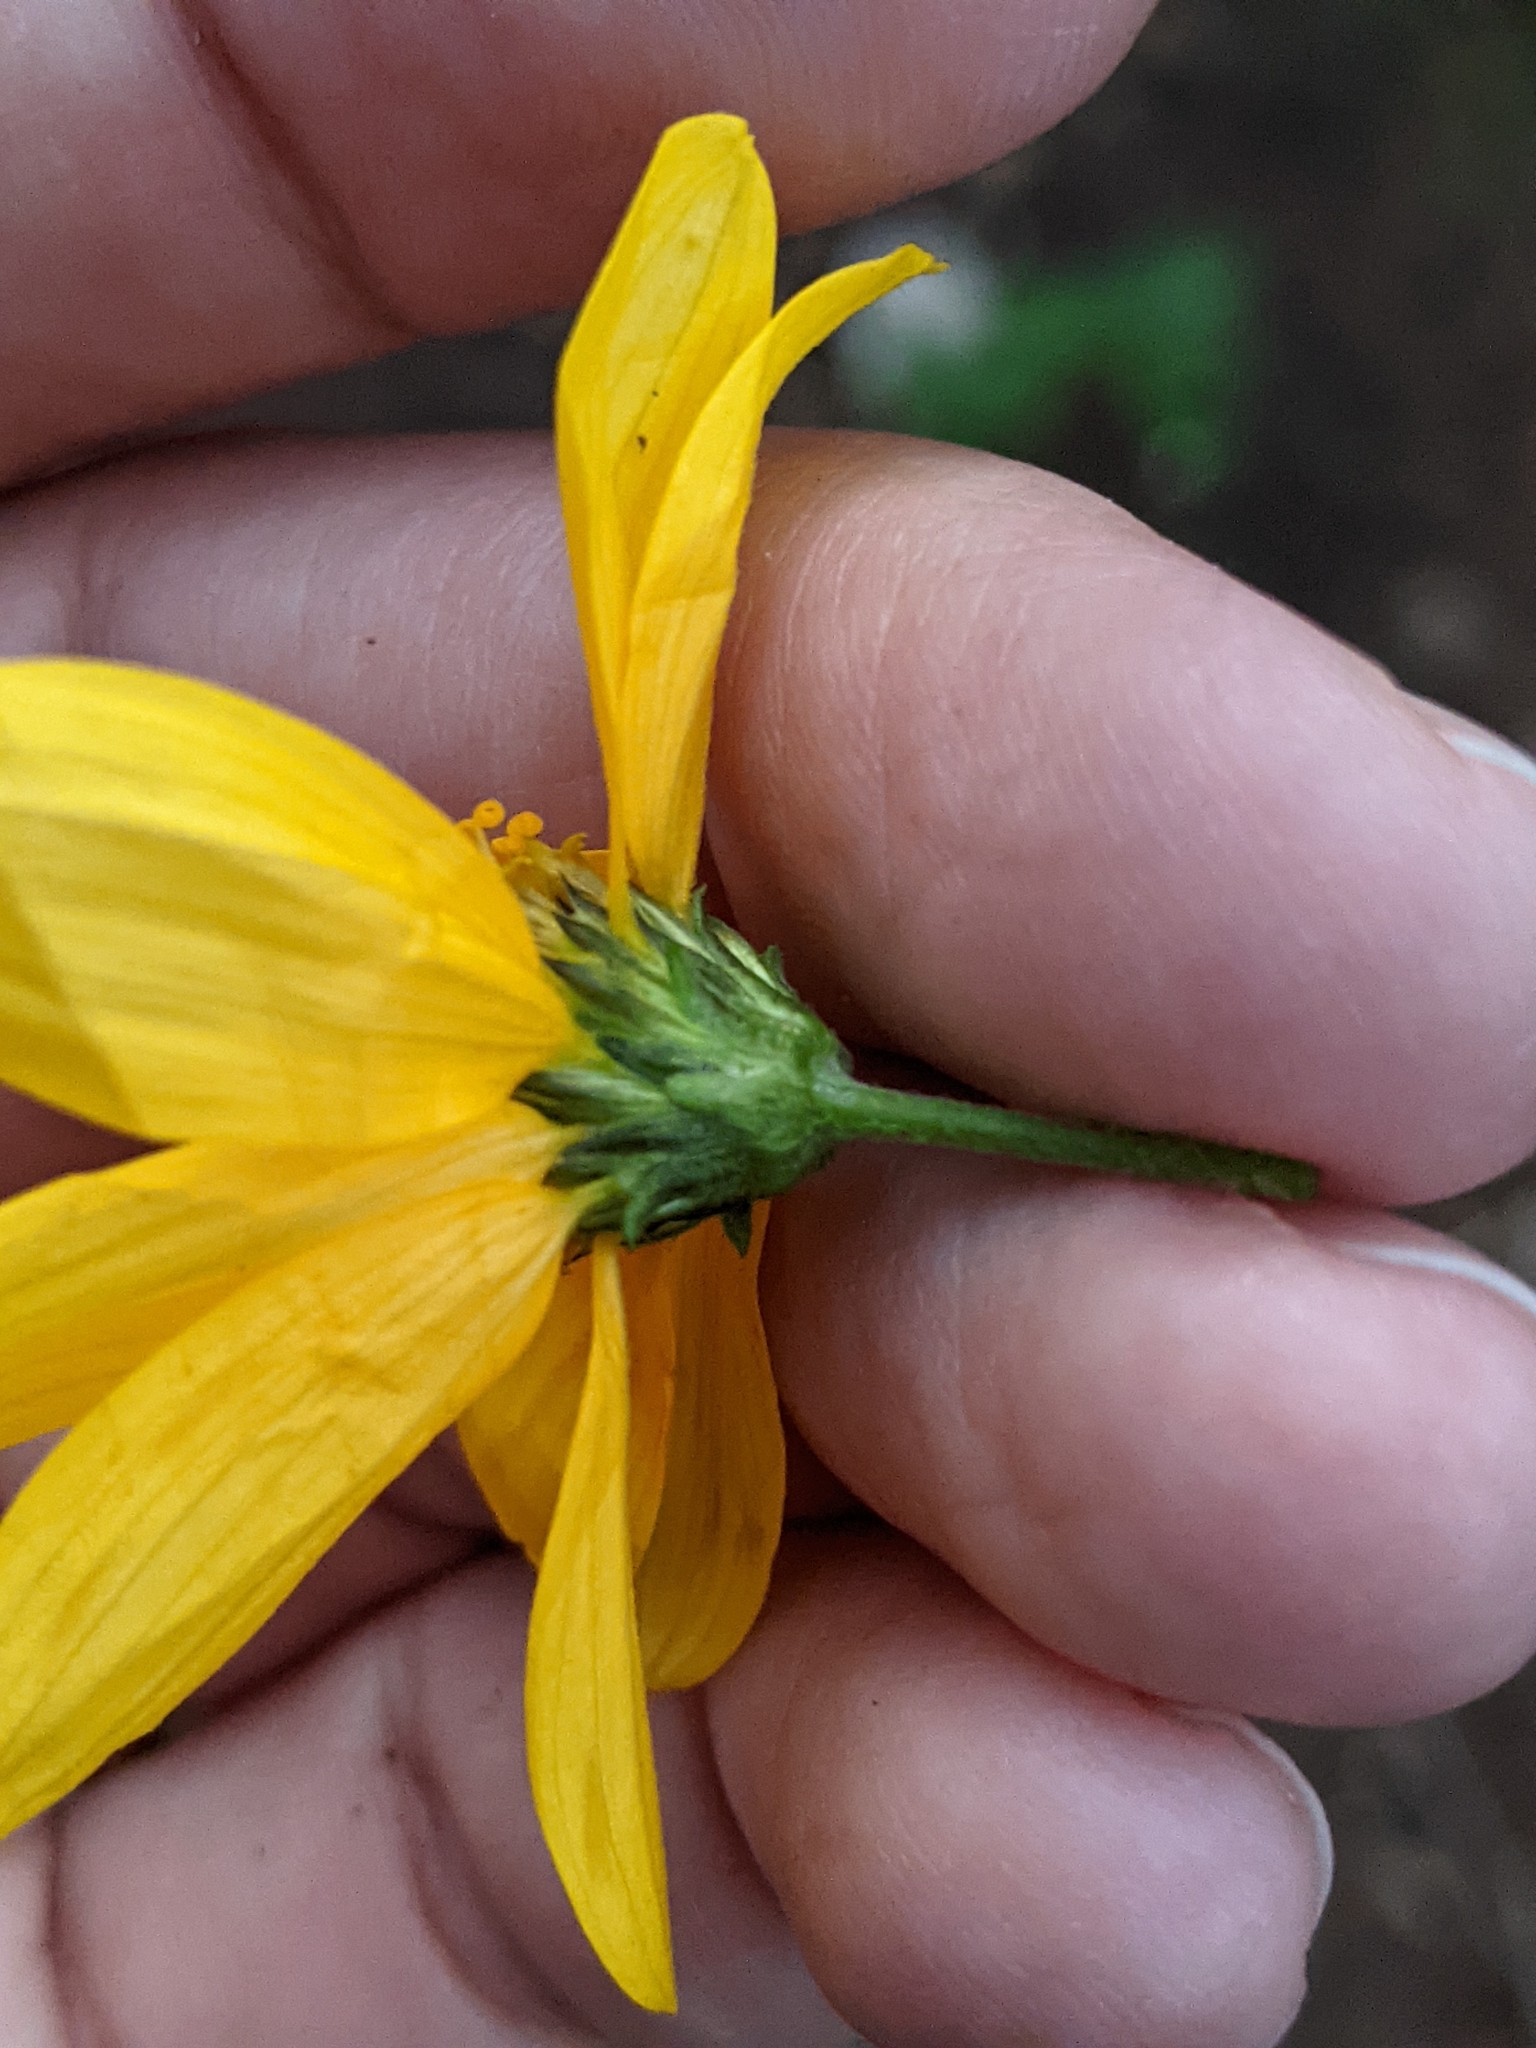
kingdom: Plantae
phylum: Tracheophyta
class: Magnoliopsida
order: Asterales
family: Asteraceae
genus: Viguiera
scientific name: Viguiera dentata
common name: Toothleaf
